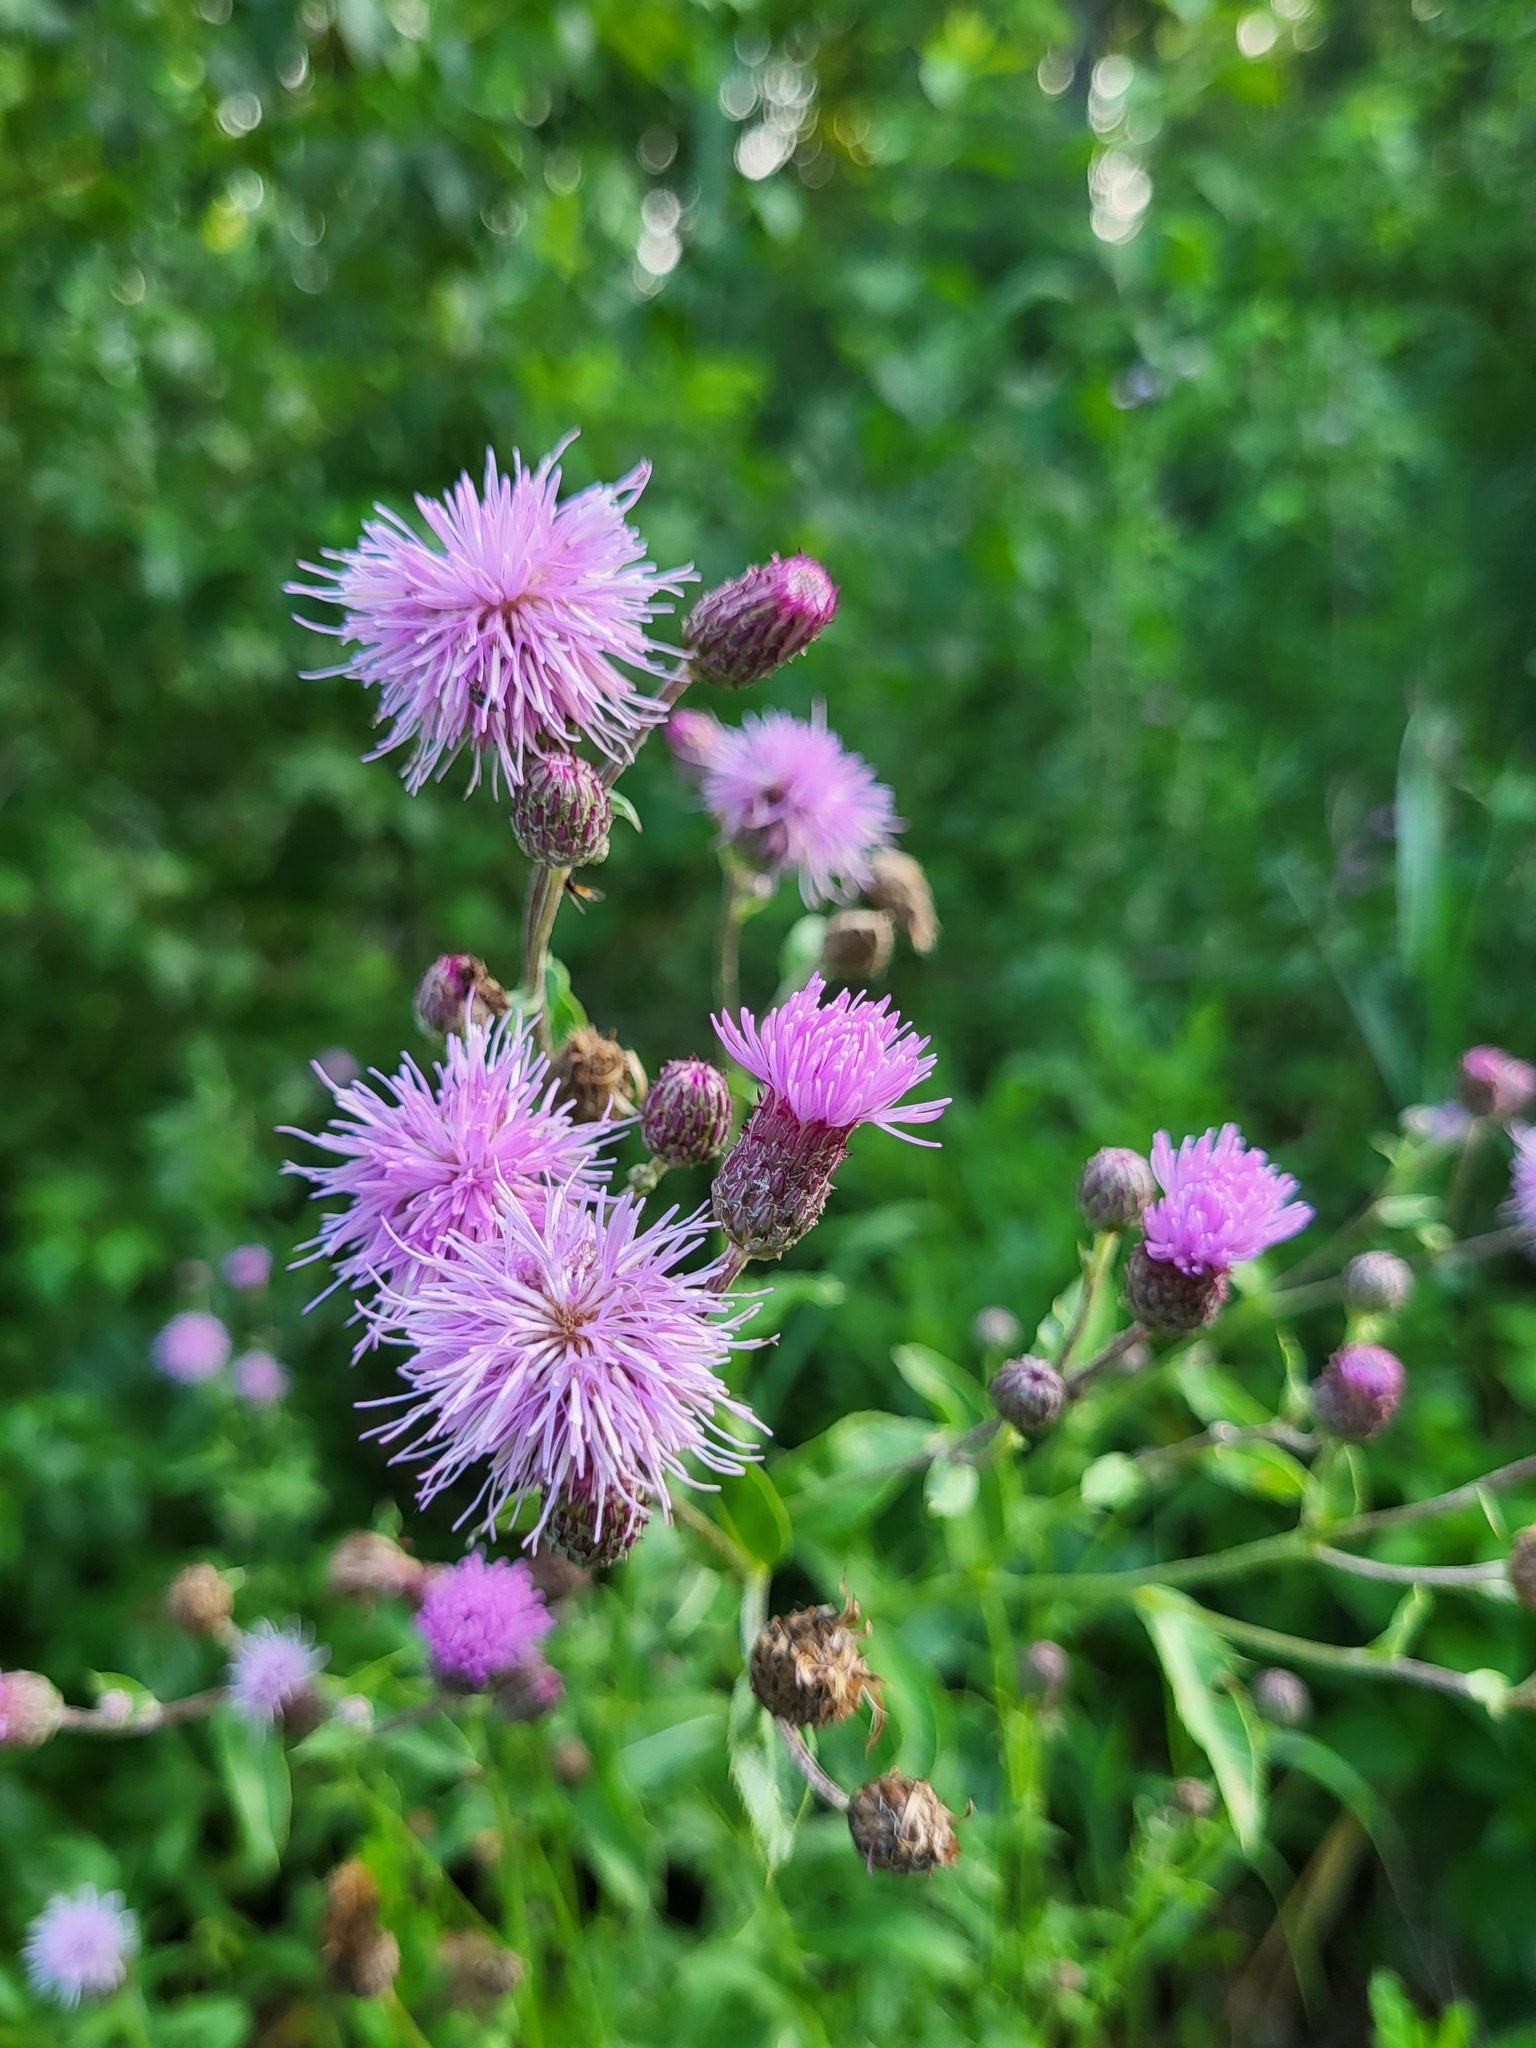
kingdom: Plantae
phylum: Tracheophyta
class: Magnoliopsida
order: Asterales
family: Asteraceae
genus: Cirsium
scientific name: Cirsium arvense
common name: Creeping thistle
